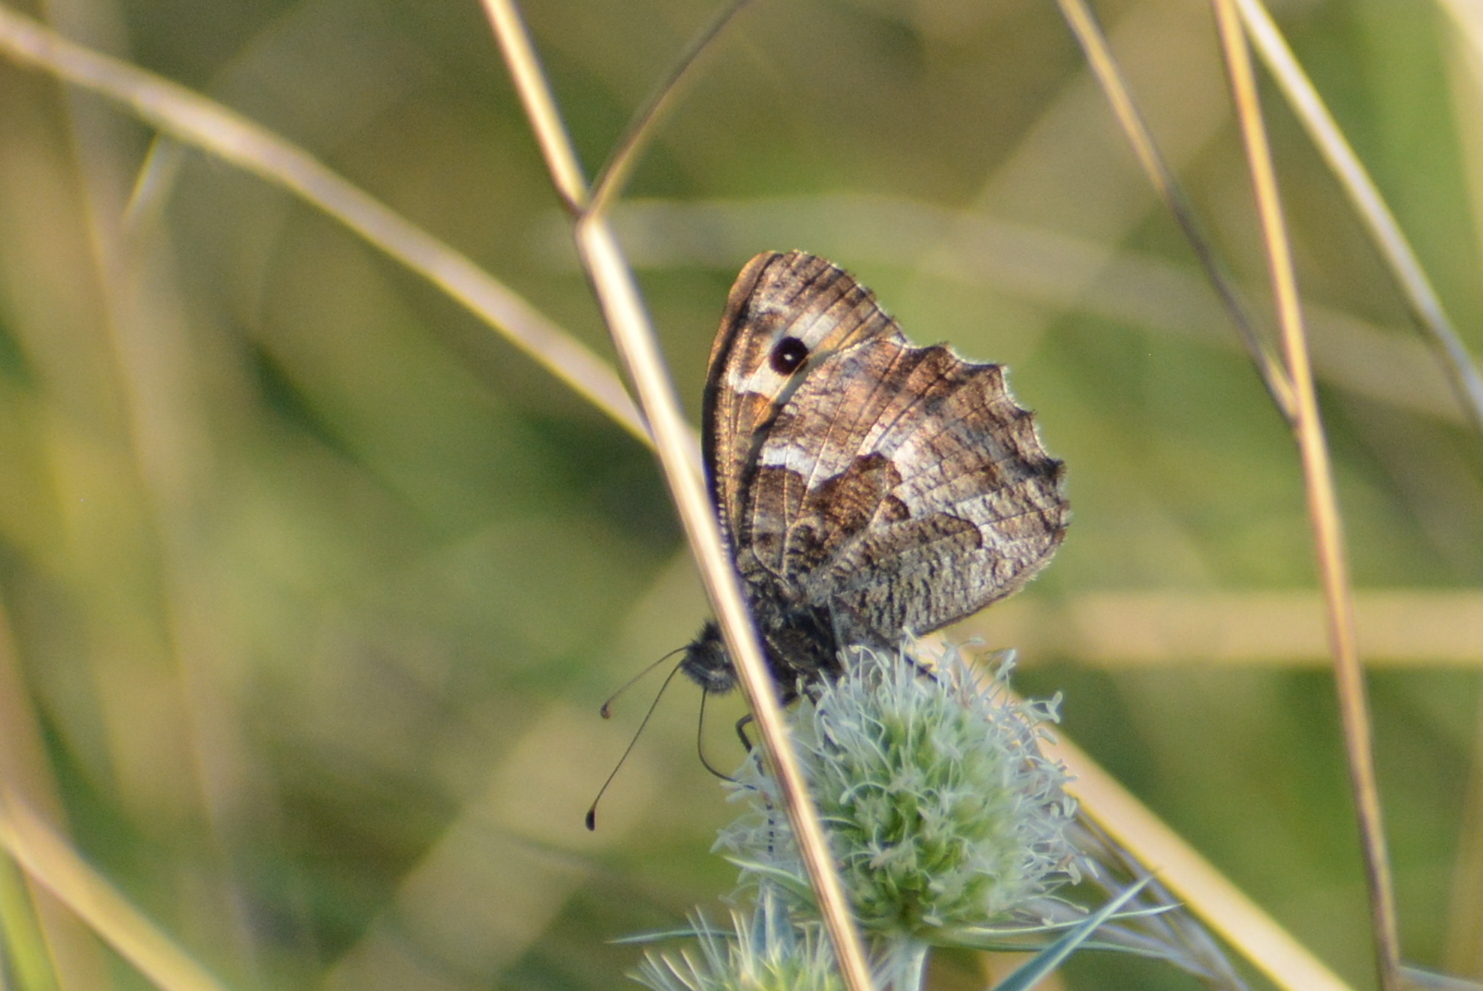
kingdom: Animalia
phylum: Arthropoda
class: Insecta
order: Lepidoptera
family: Nymphalidae
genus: Hipparchia
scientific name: Hipparchia semele
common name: Grayling
